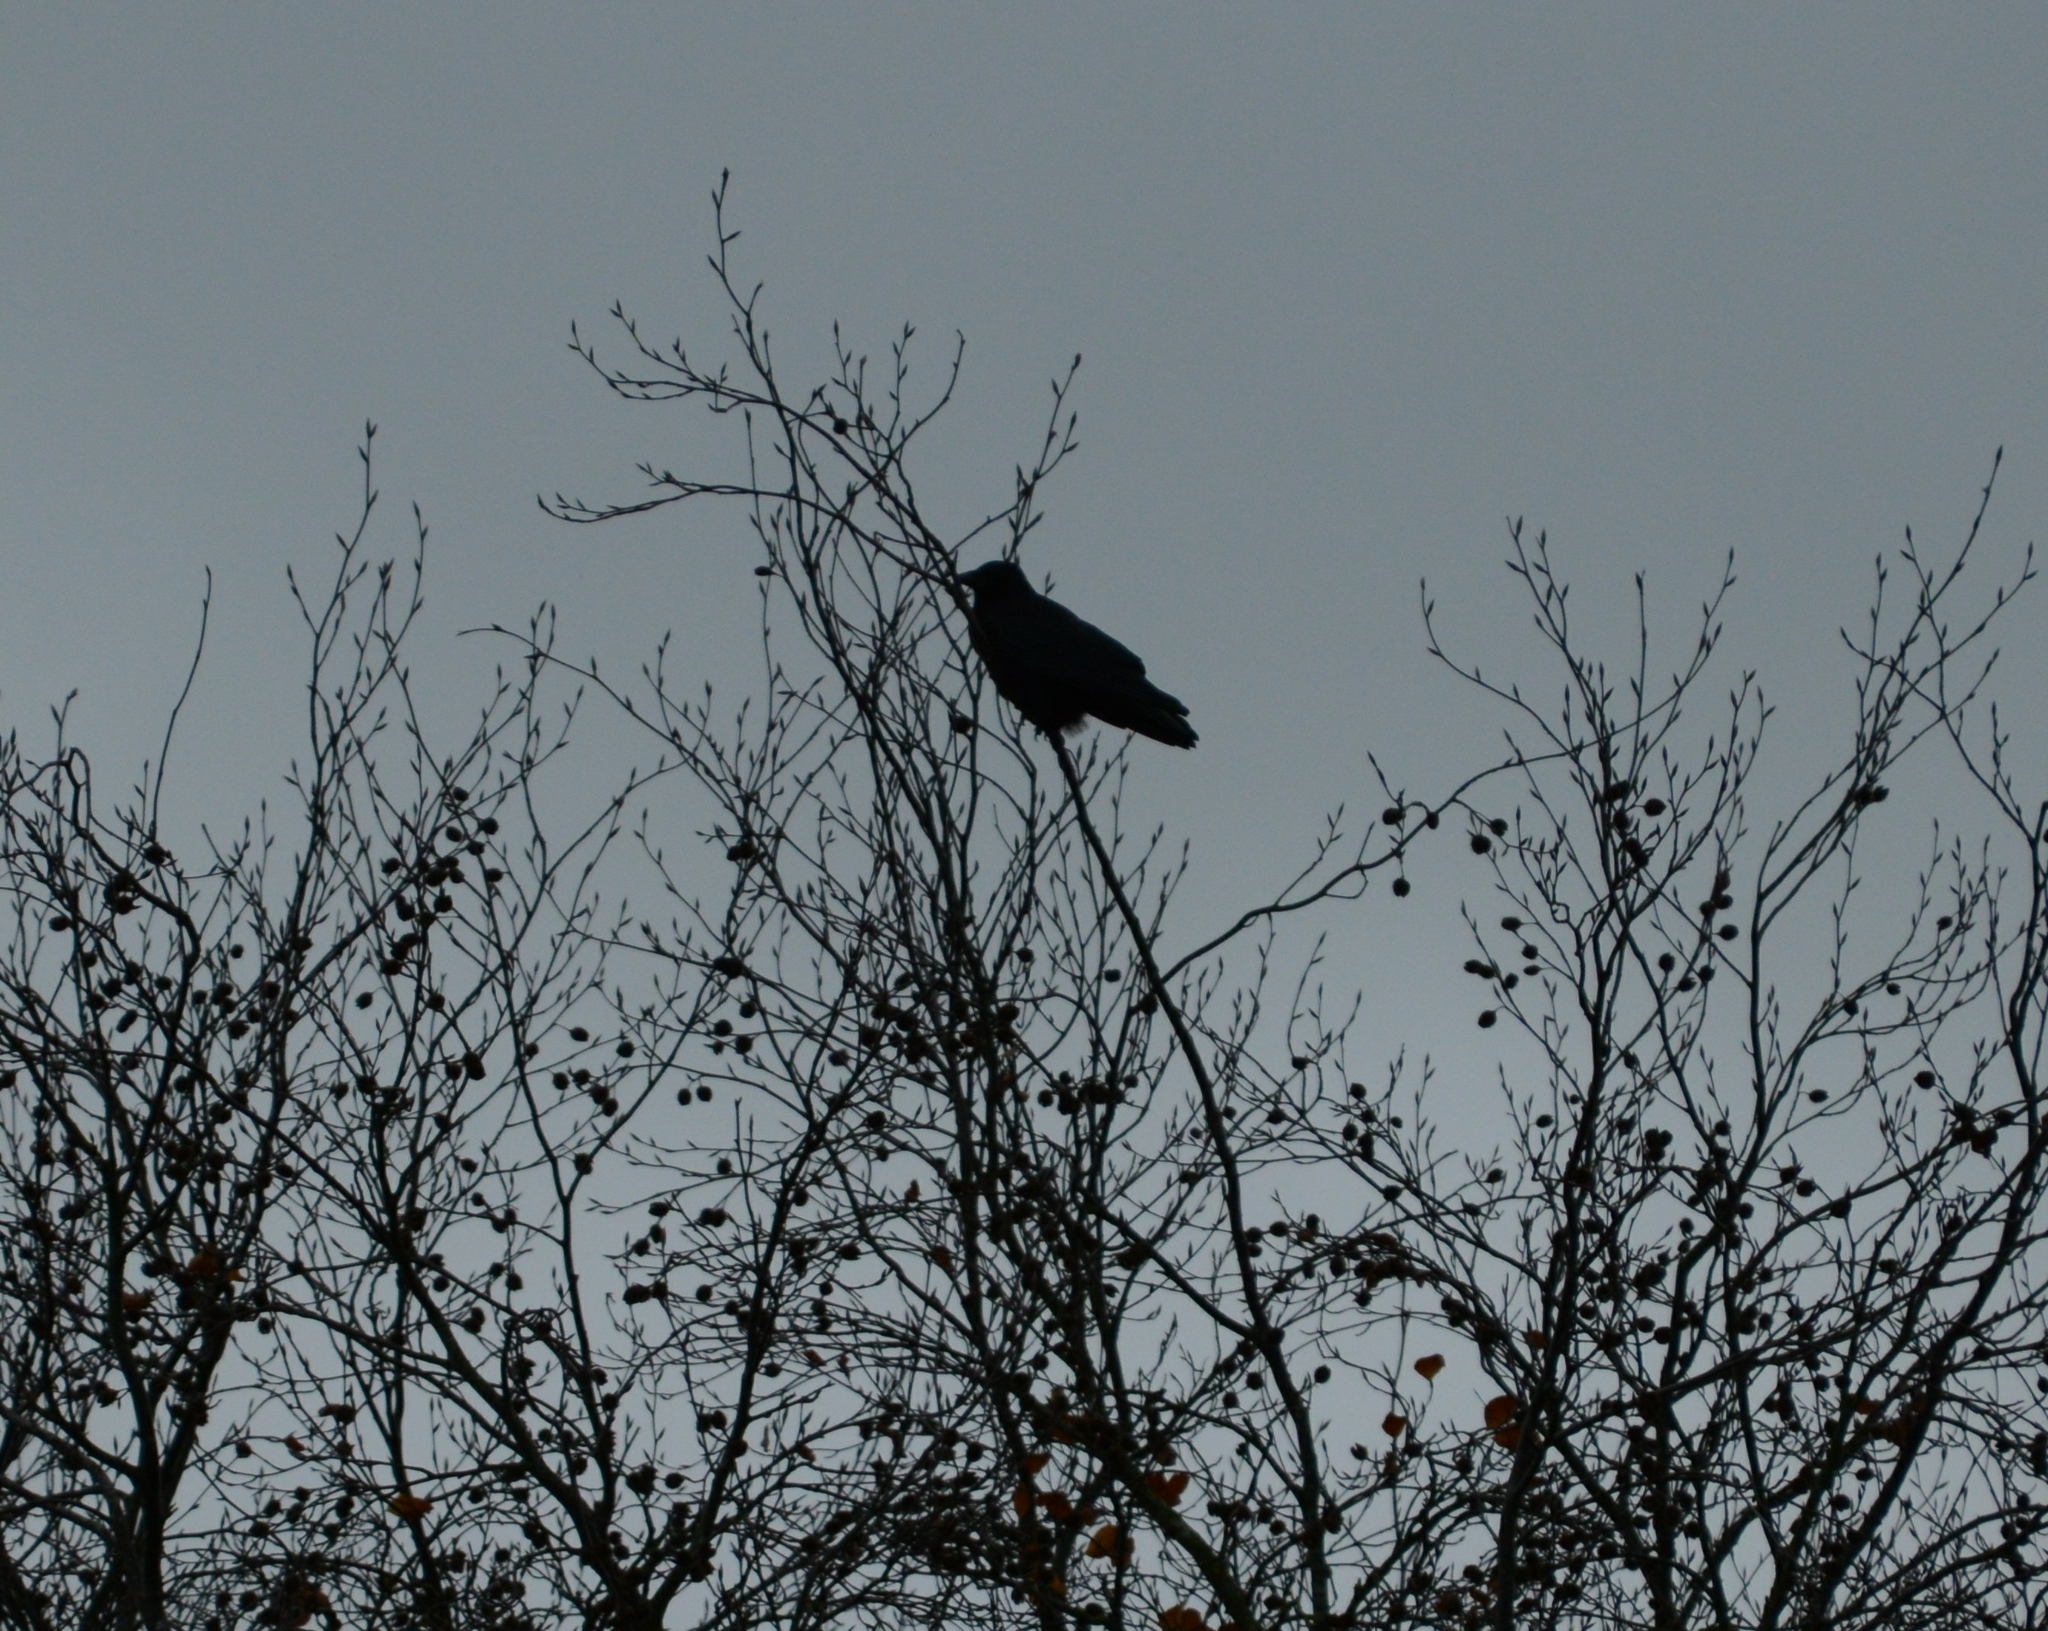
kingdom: Animalia
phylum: Chordata
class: Aves
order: Passeriformes
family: Corvidae
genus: Corvus
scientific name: Corvus corone
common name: Carrion crow
